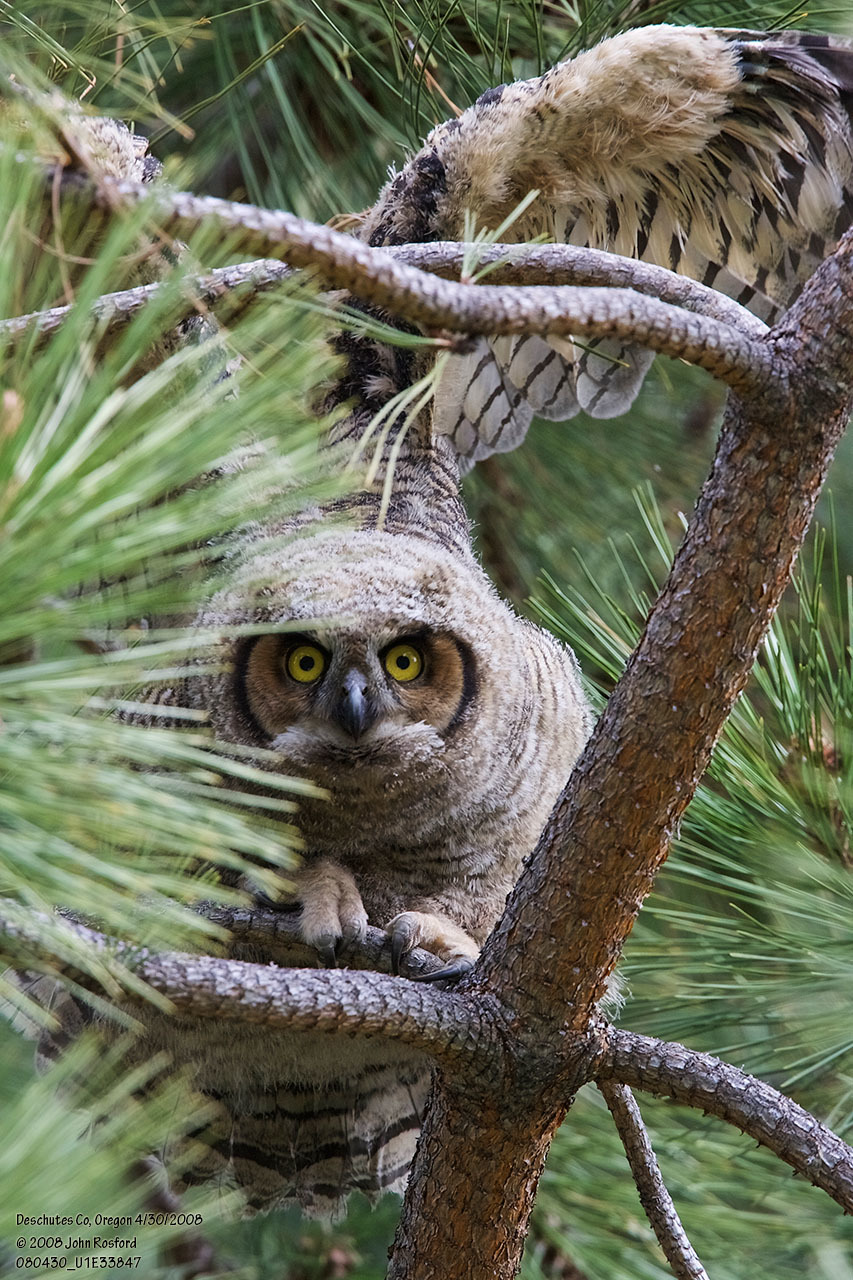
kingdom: Animalia
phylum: Chordata
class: Aves
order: Strigiformes
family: Strigidae
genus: Bubo
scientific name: Bubo virginianus
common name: Great horned owl
